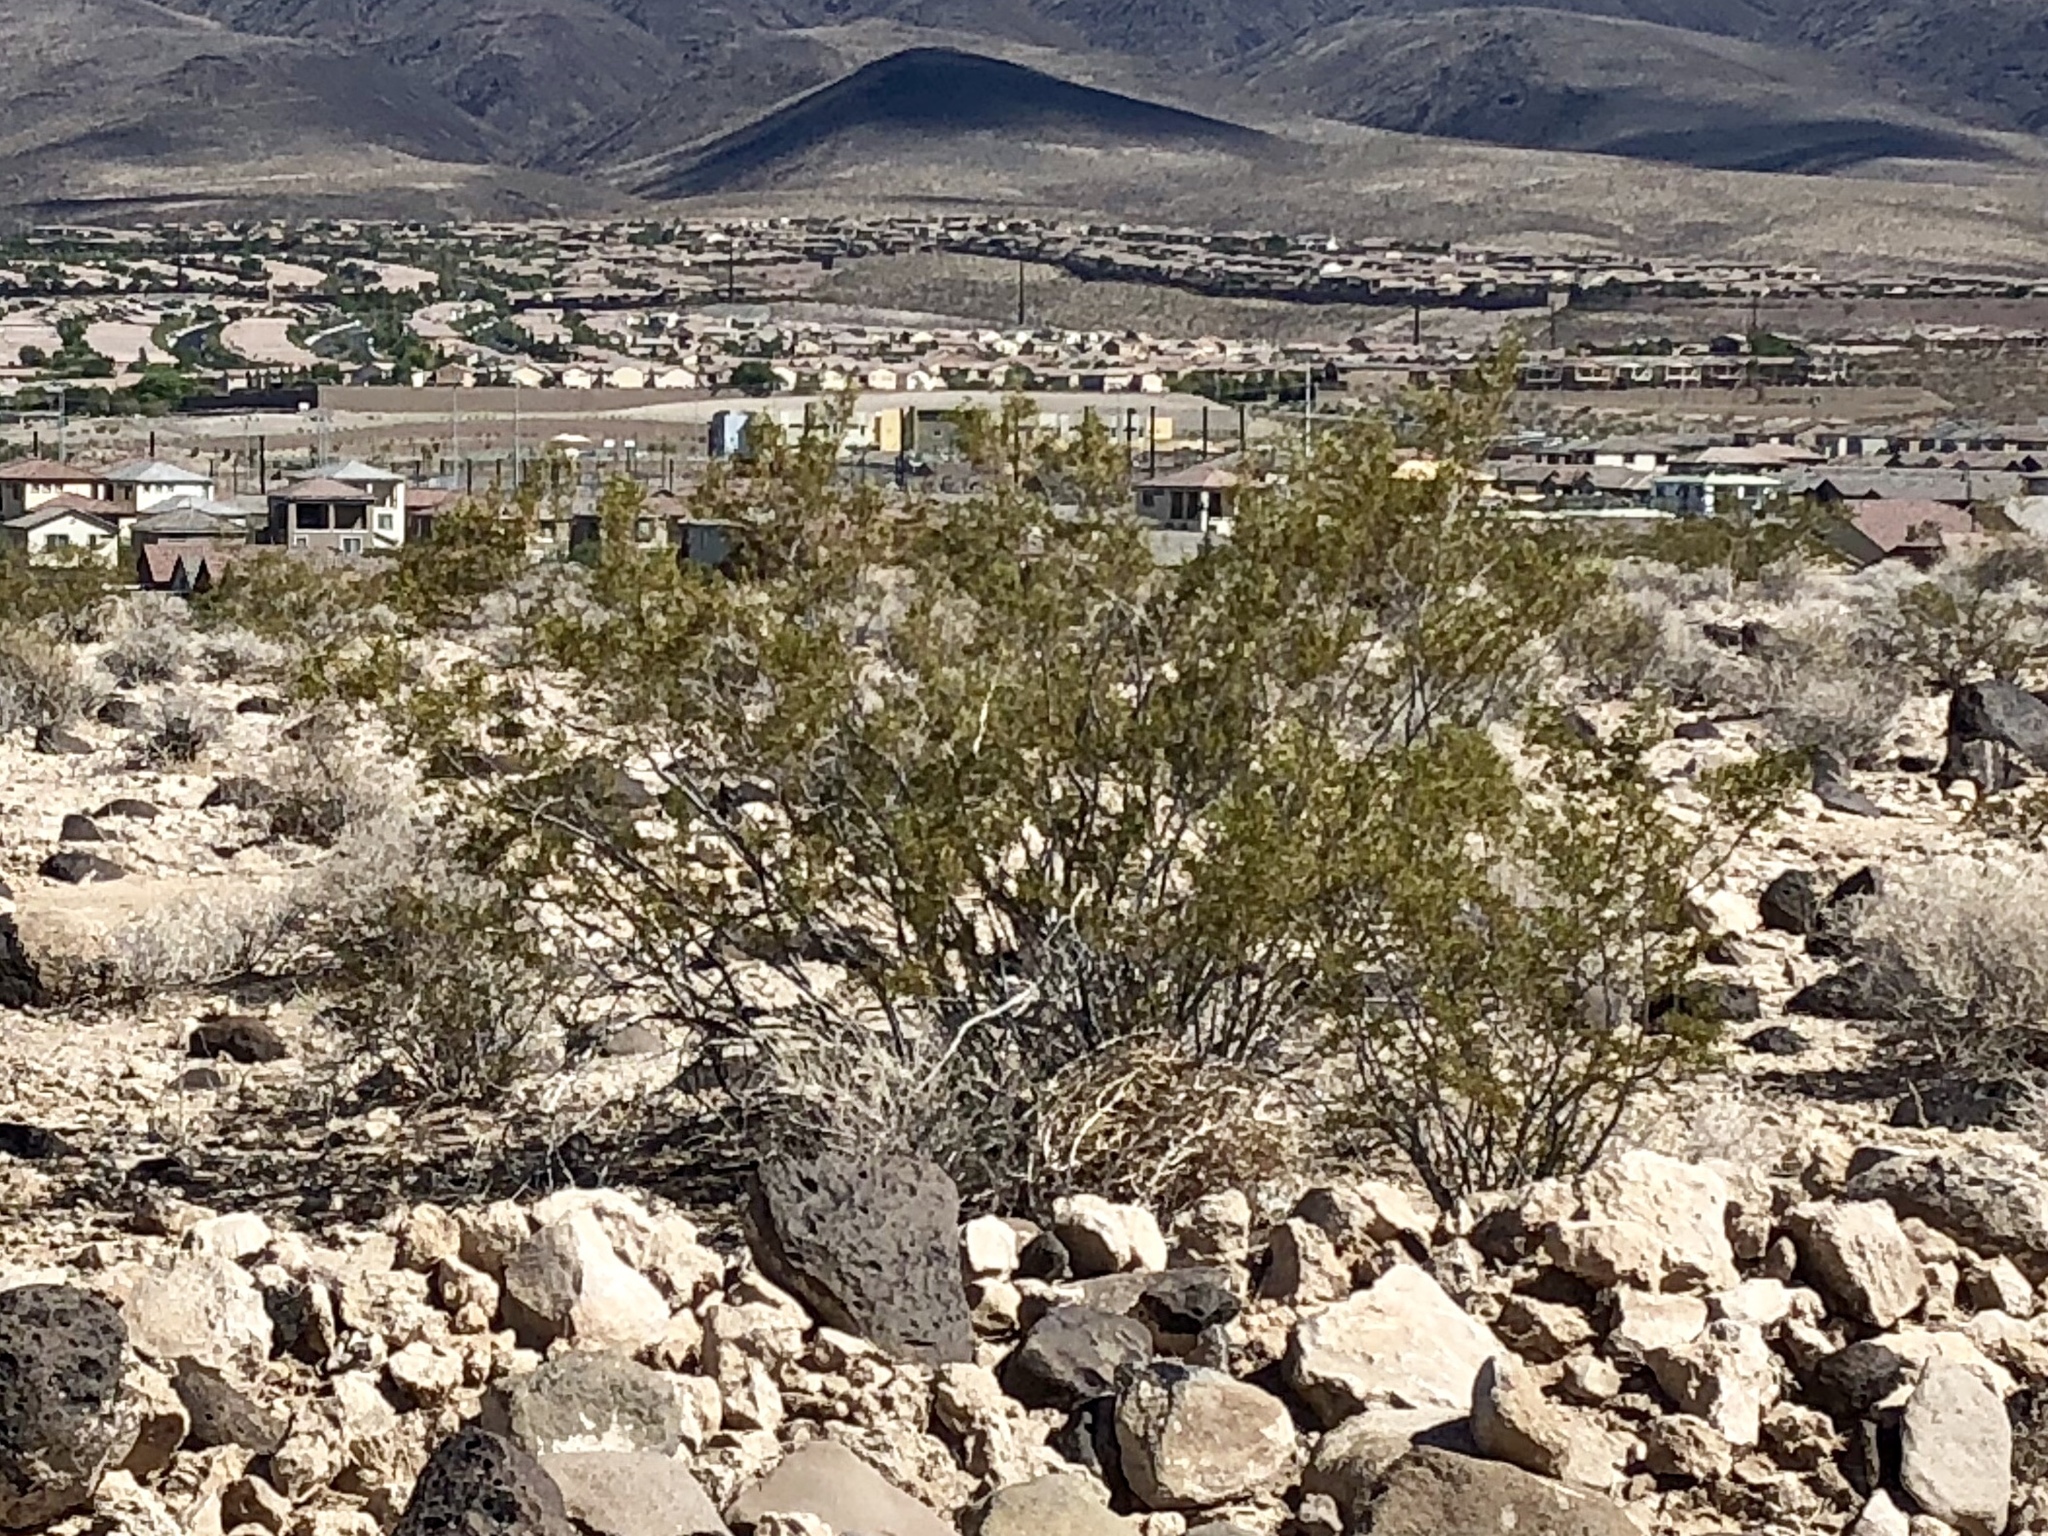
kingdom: Plantae
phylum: Tracheophyta
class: Magnoliopsida
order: Zygophyllales
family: Zygophyllaceae
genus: Larrea
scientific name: Larrea tridentata
